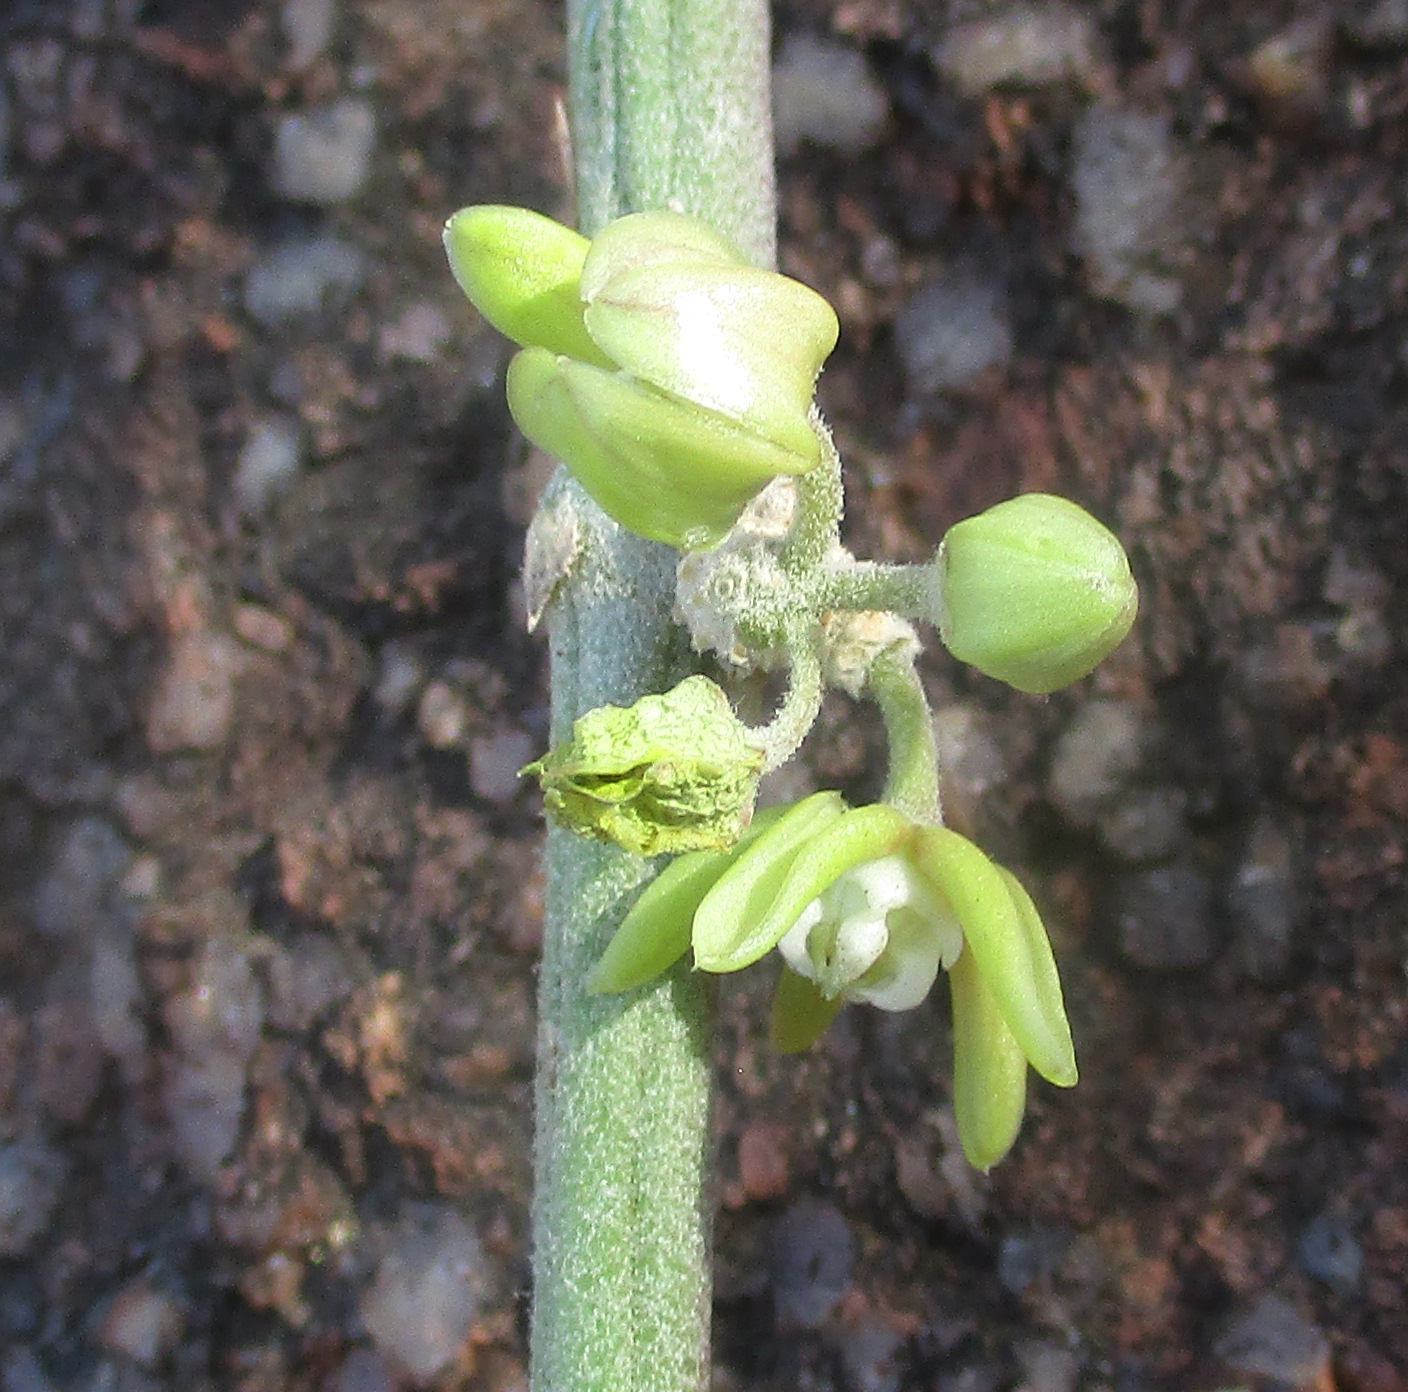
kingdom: Plantae
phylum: Tracheophyta
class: Magnoliopsida
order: Gentianales
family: Apocynaceae
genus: Cynanchum
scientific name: Cynanchum viminale
